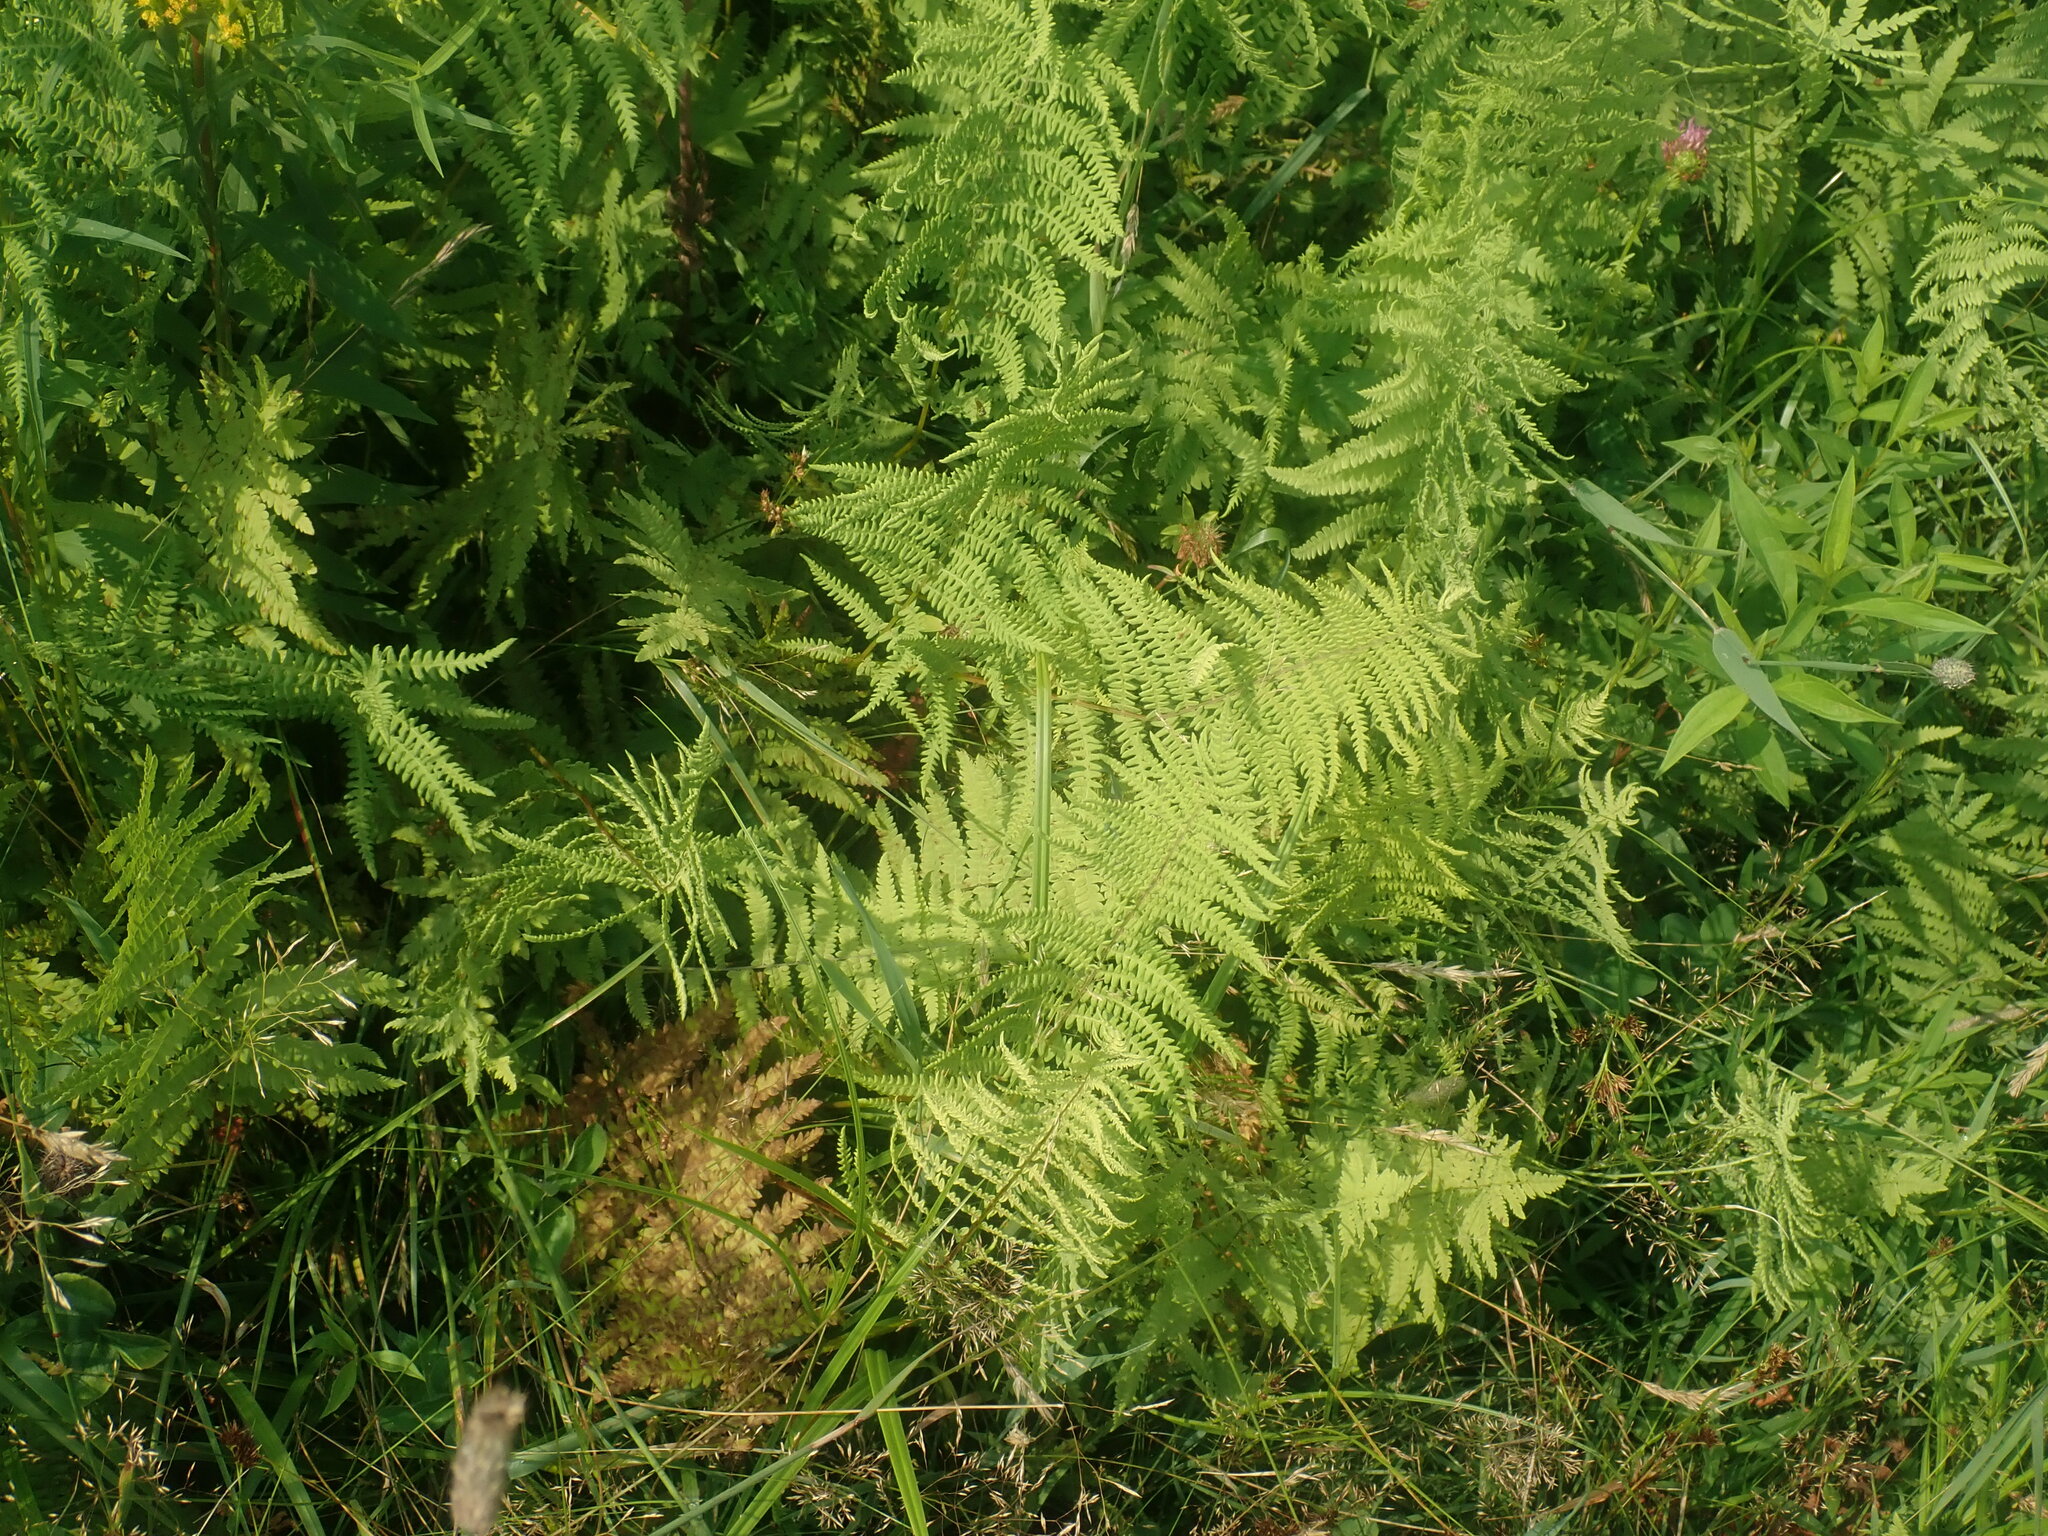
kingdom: Plantae
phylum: Tracheophyta
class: Polypodiopsida
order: Polypodiales
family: Thelypteridaceae
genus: Thelypteris
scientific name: Thelypteris palustris
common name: Marsh fern
